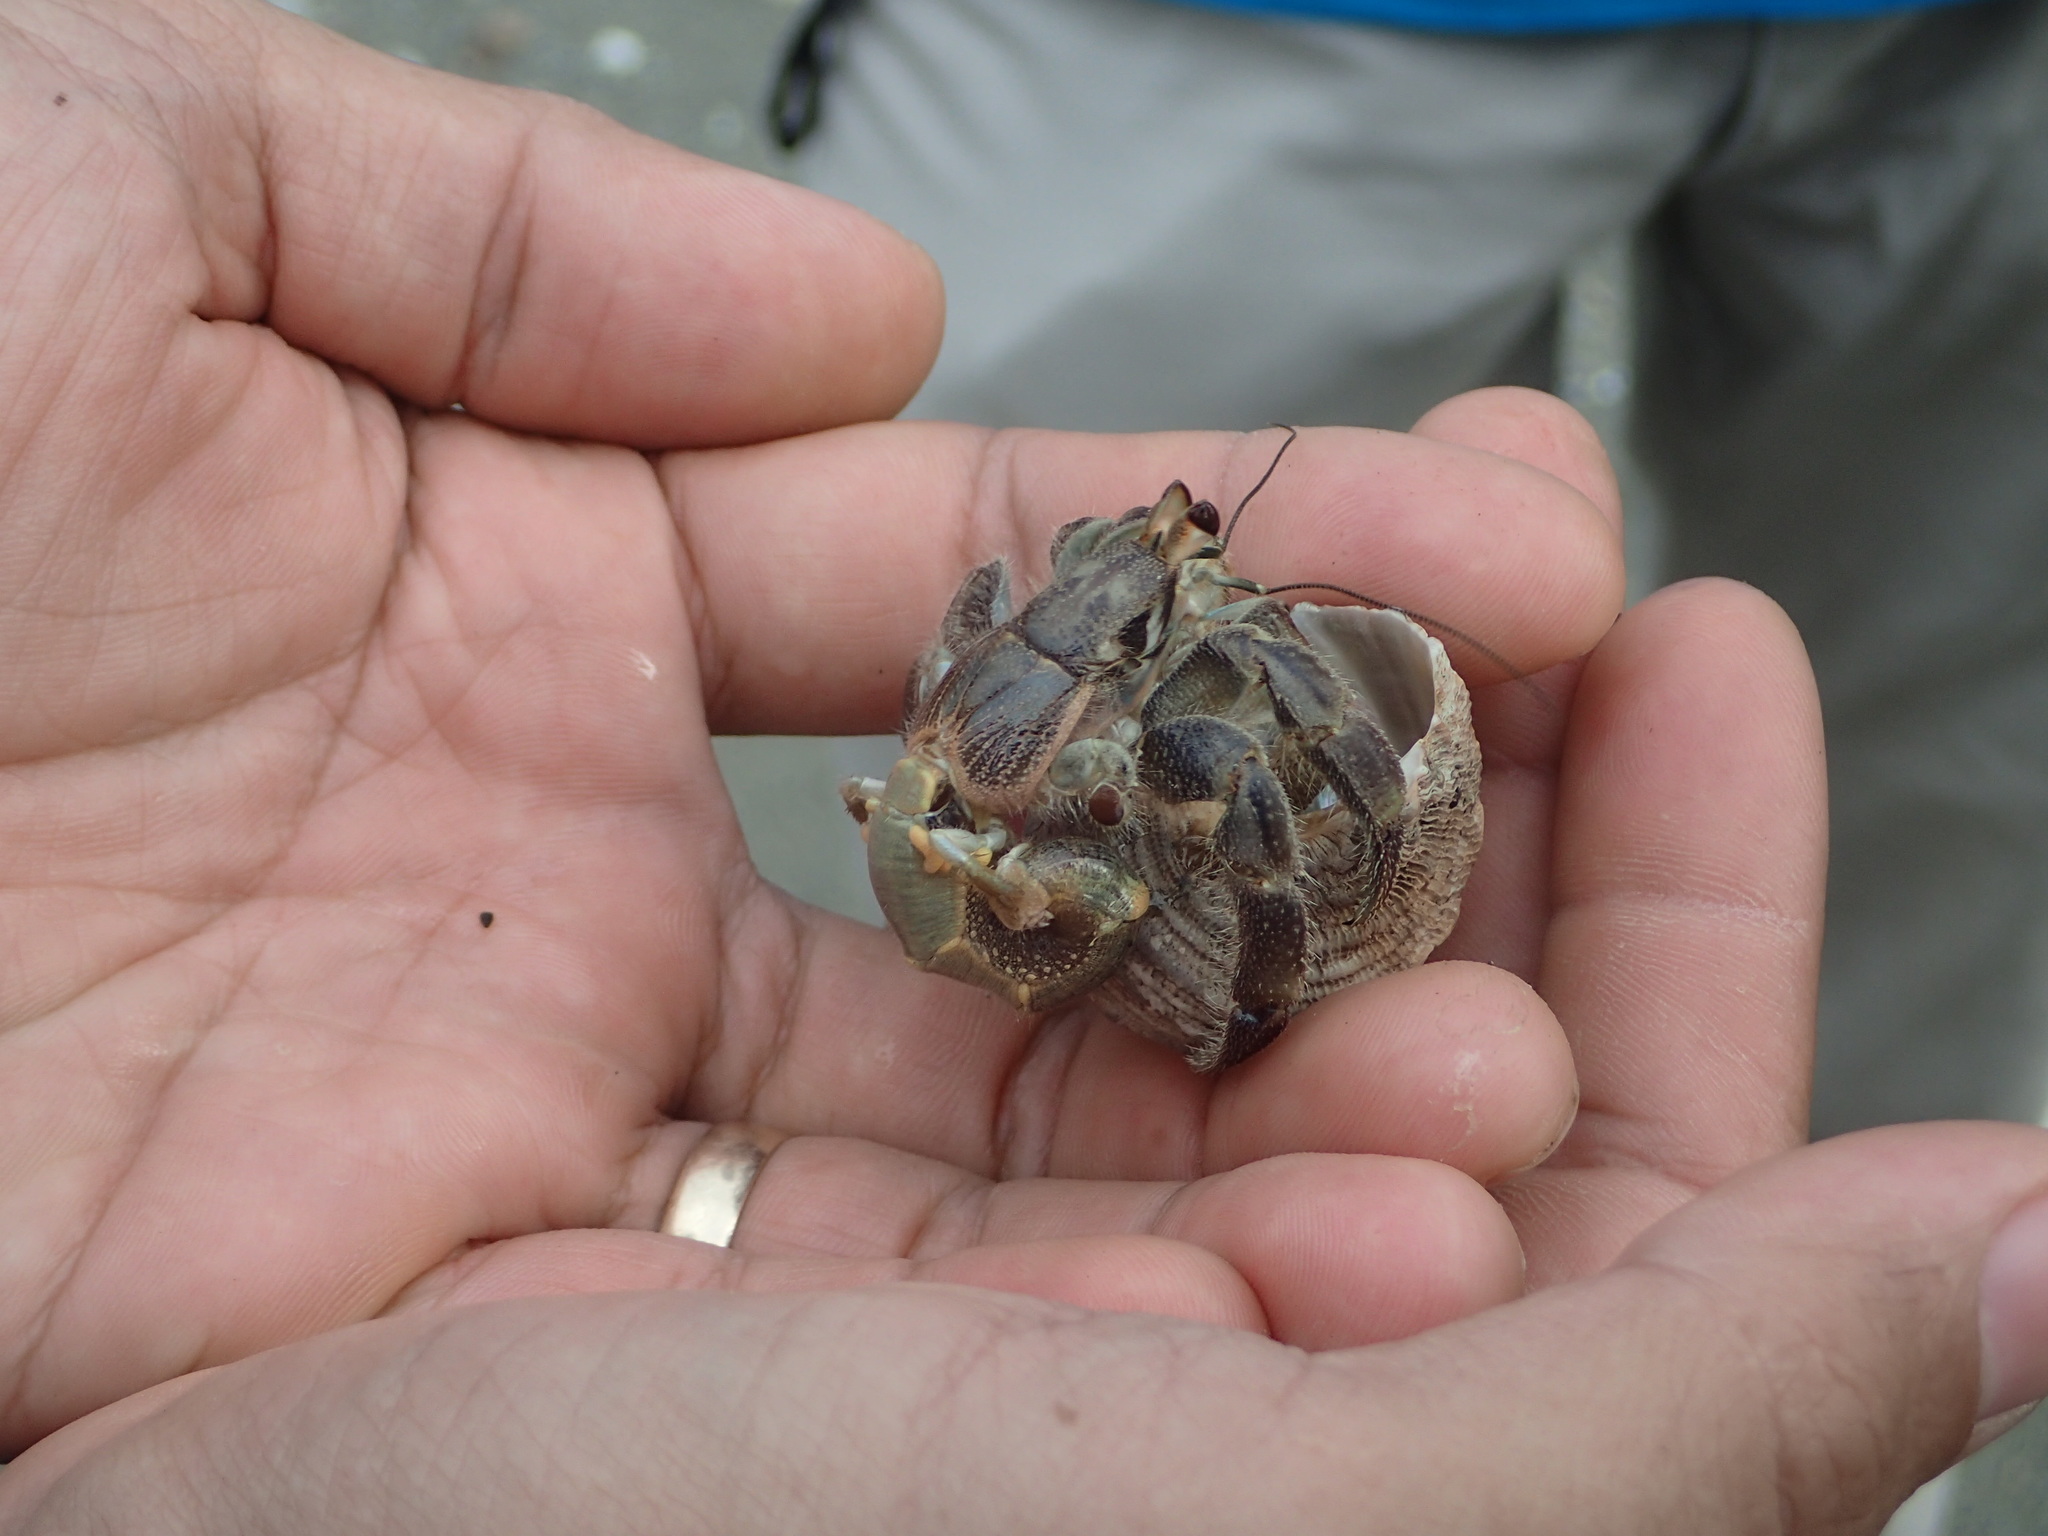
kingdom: Animalia
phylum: Arthropoda
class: Malacostraca
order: Decapoda
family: Coenobitidae
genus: Coenobita
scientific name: Coenobita compressus
